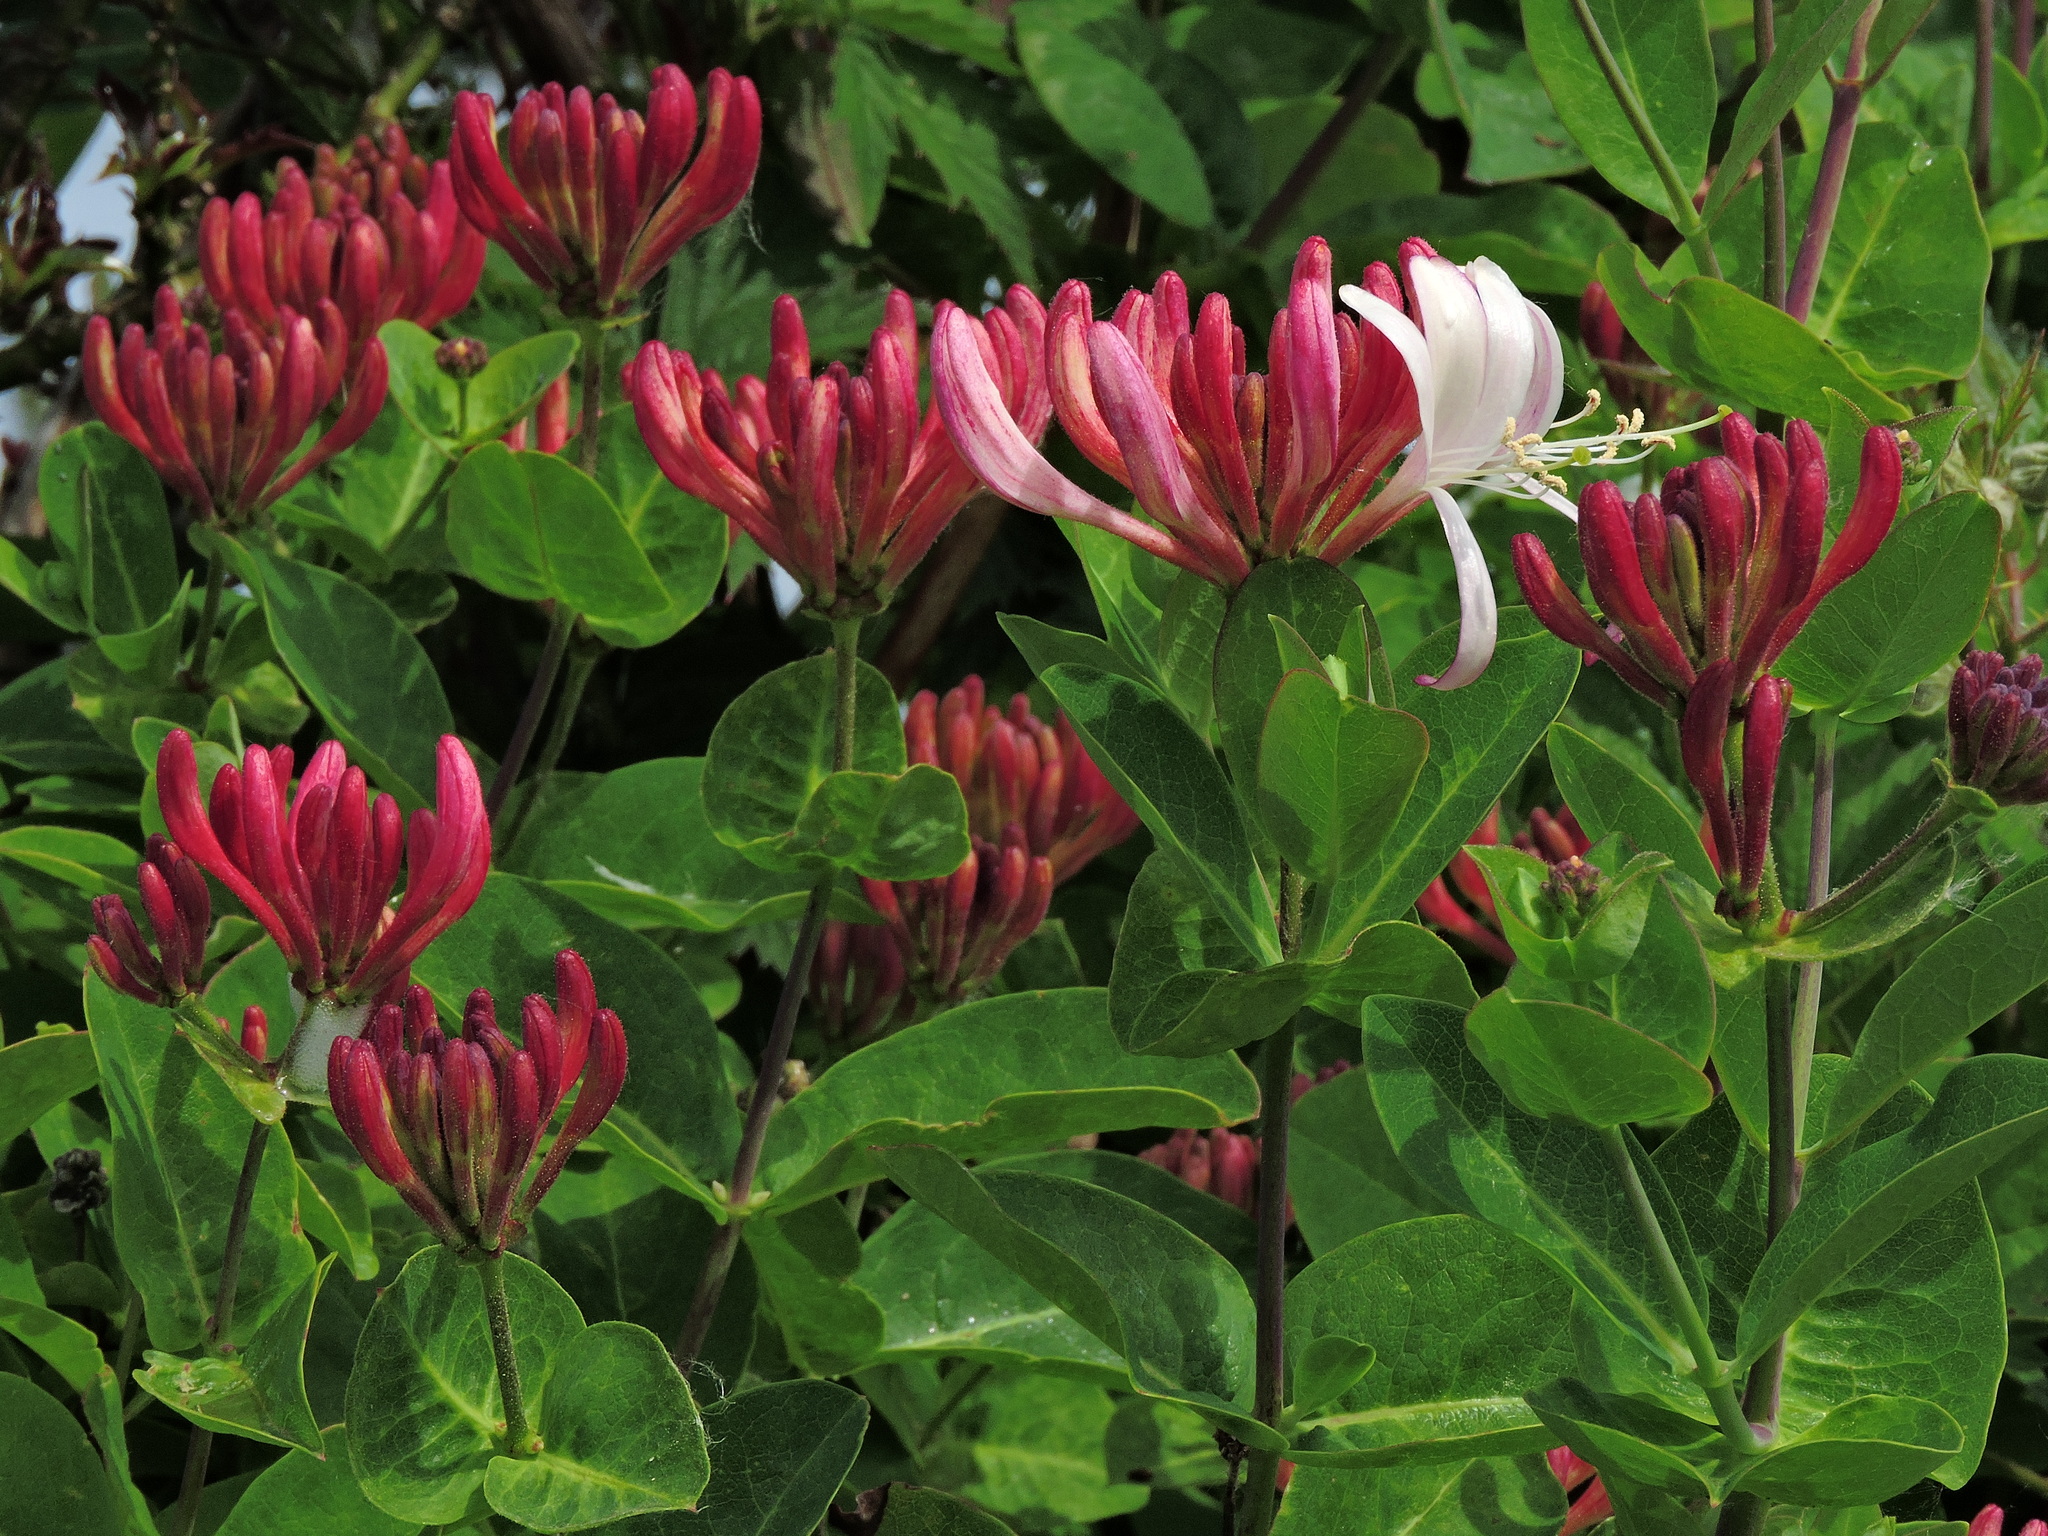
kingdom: Plantae
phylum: Tracheophyta
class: Magnoliopsida
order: Dipsacales
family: Caprifoliaceae
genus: Lonicera
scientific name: Lonicera periclymenum
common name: European honeysuckle
